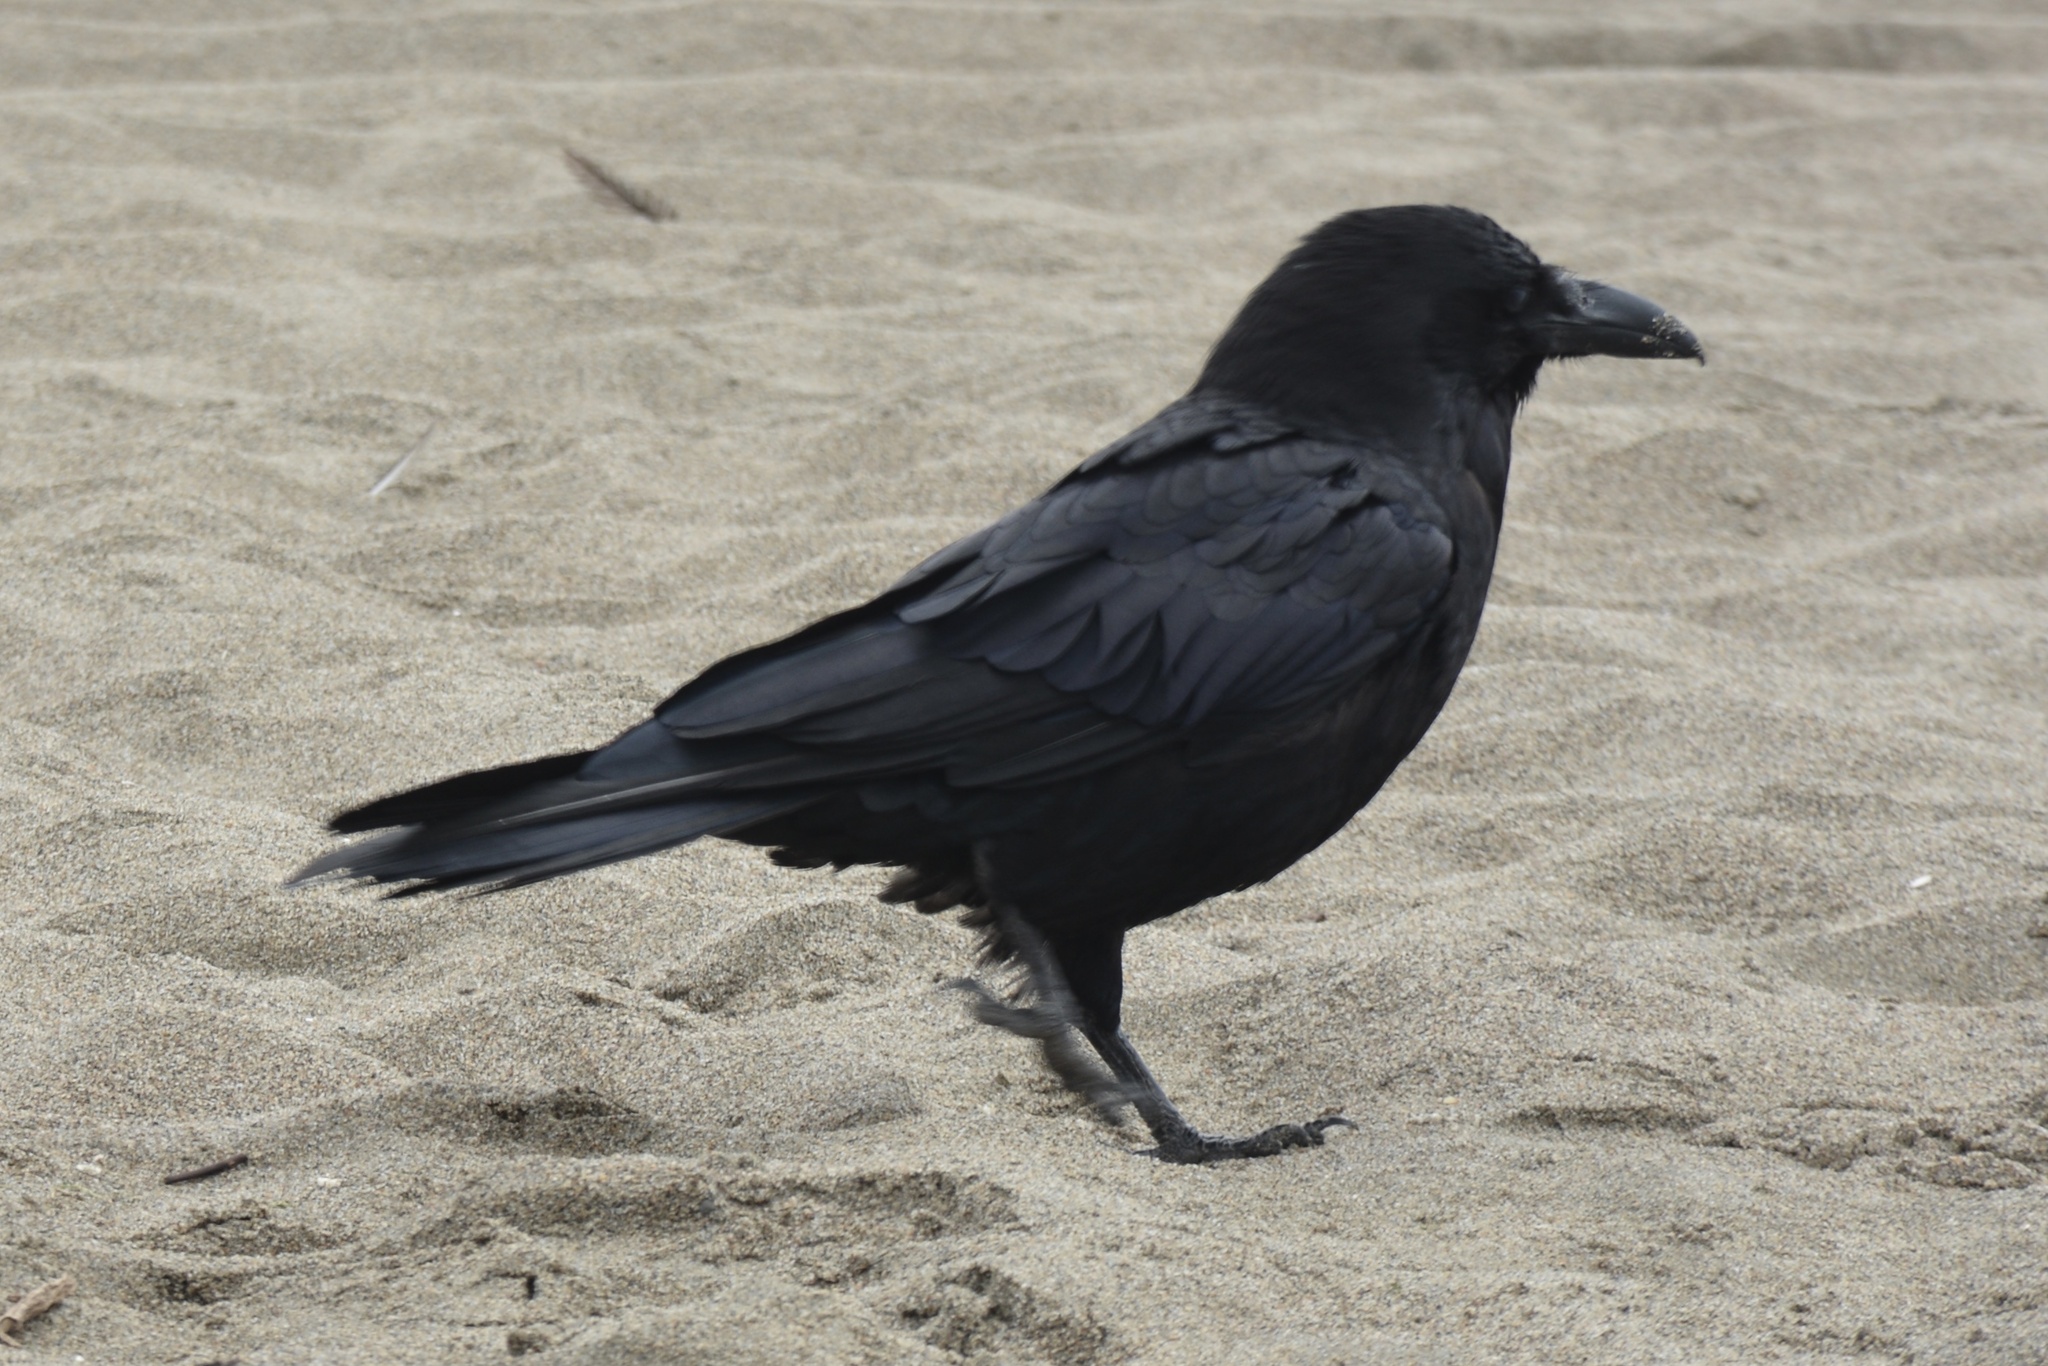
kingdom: Animalia
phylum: Chordata
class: Aves
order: Passeriformes
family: Corvidae
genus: Corvus
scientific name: Corvus corax
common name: Common raven
